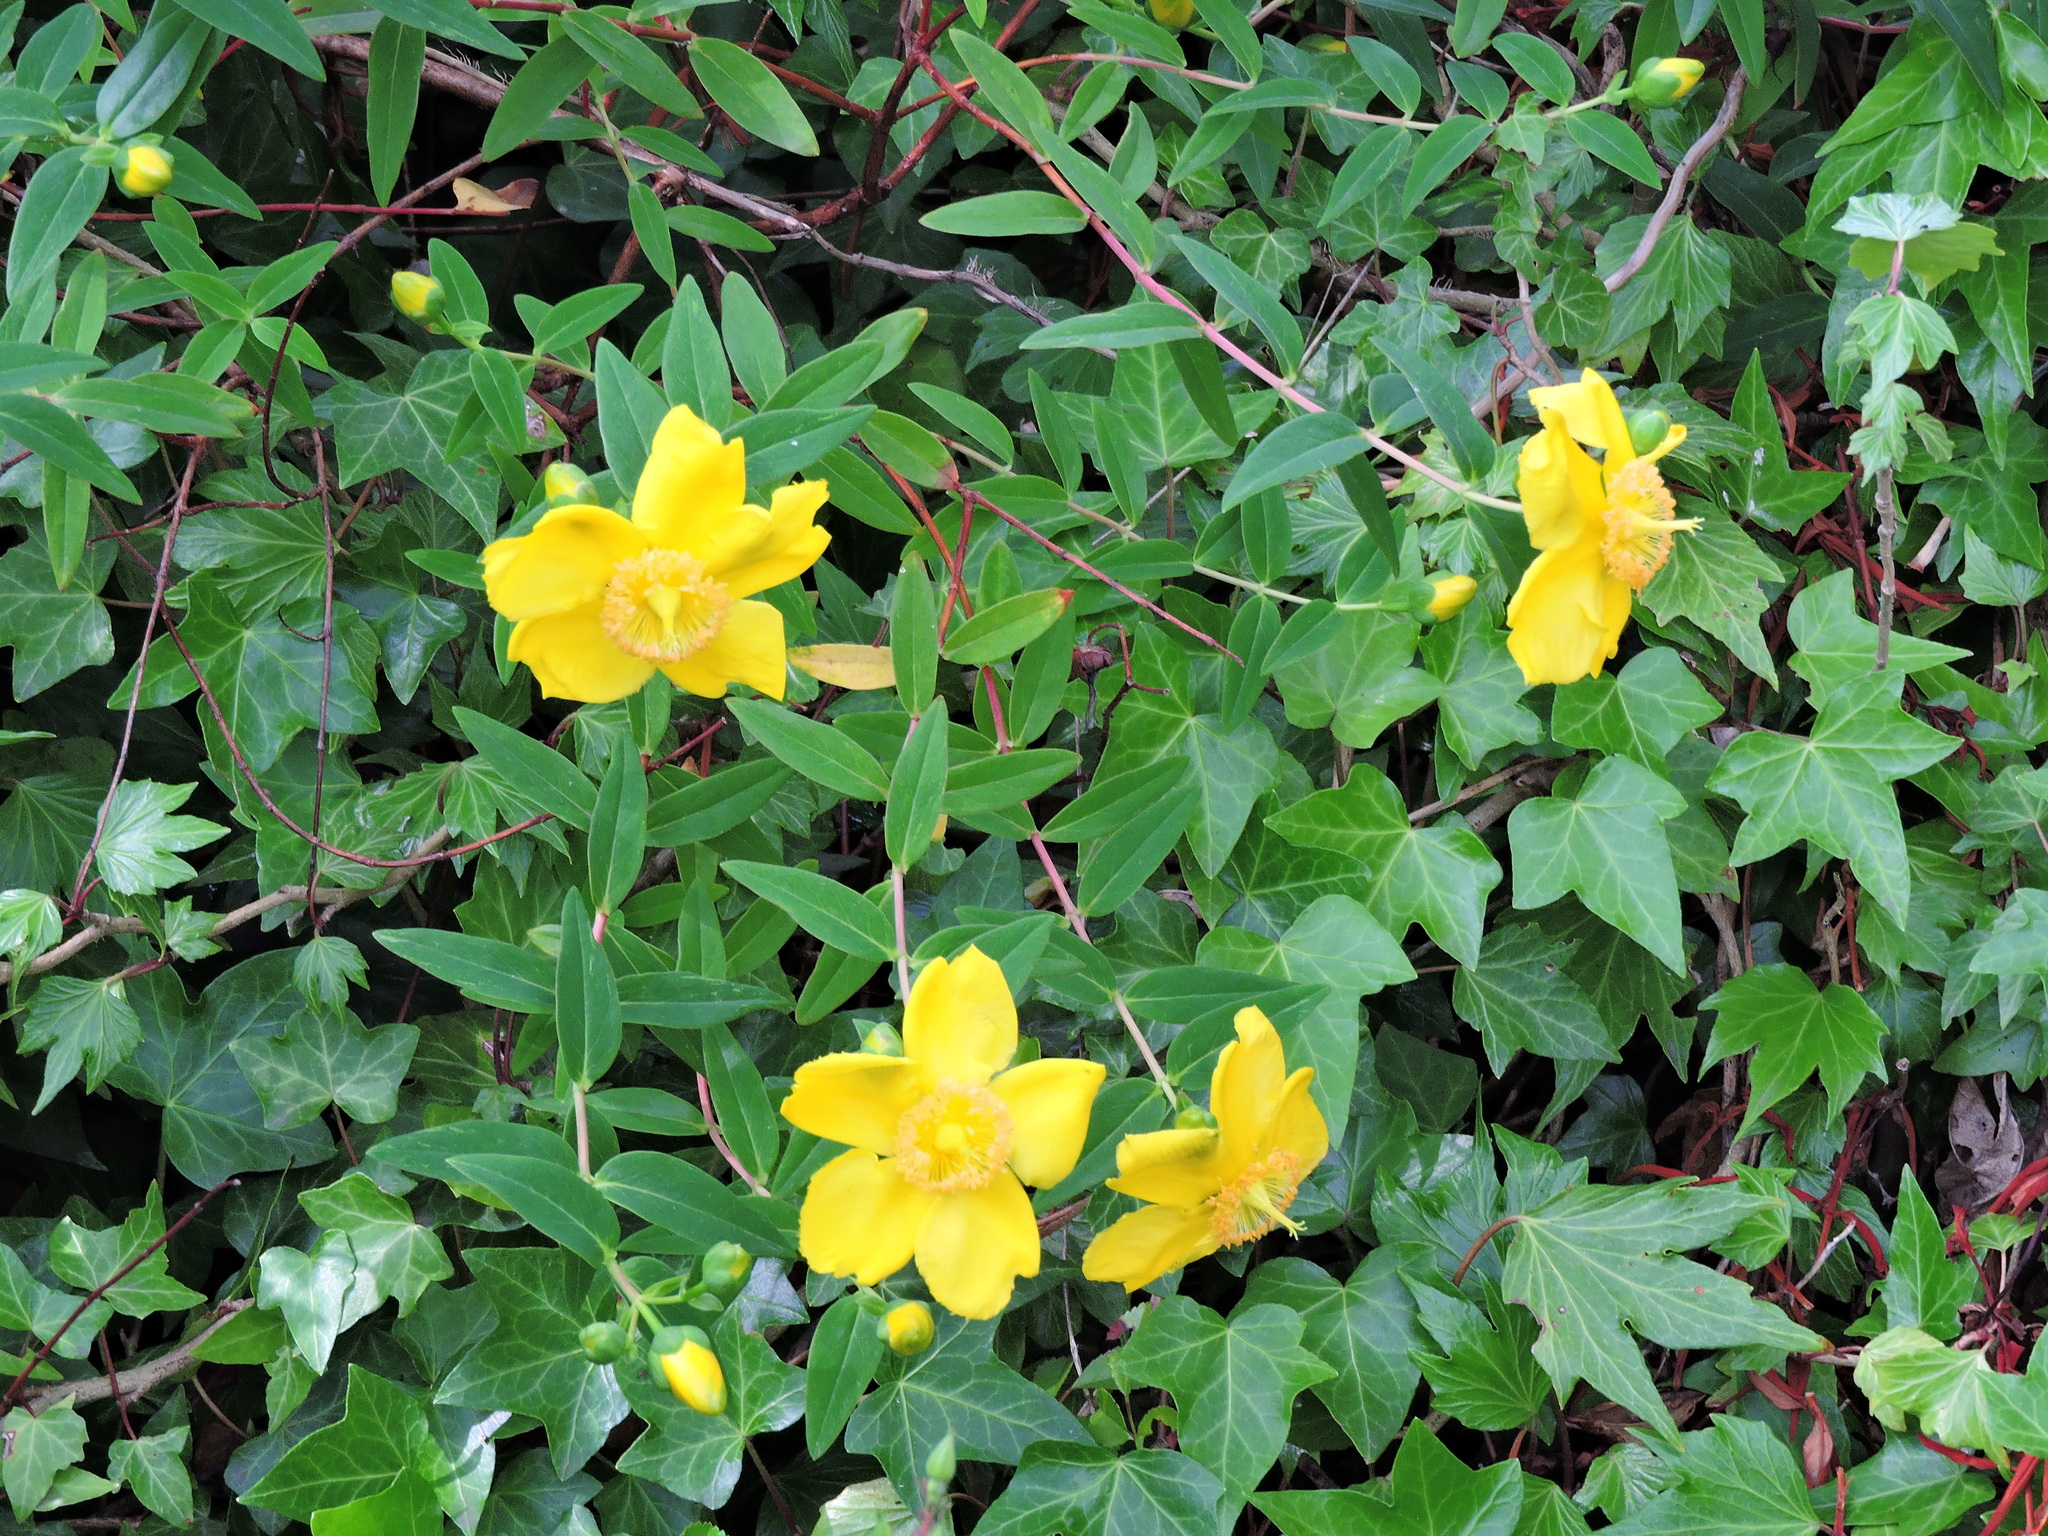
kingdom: Plantae
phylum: Tracheophyta
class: Magnoliopsida
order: Malpighiales
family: Hypericaceae
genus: Hypericum
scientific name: Hypericum calycinum
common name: Rose-of-sharon
